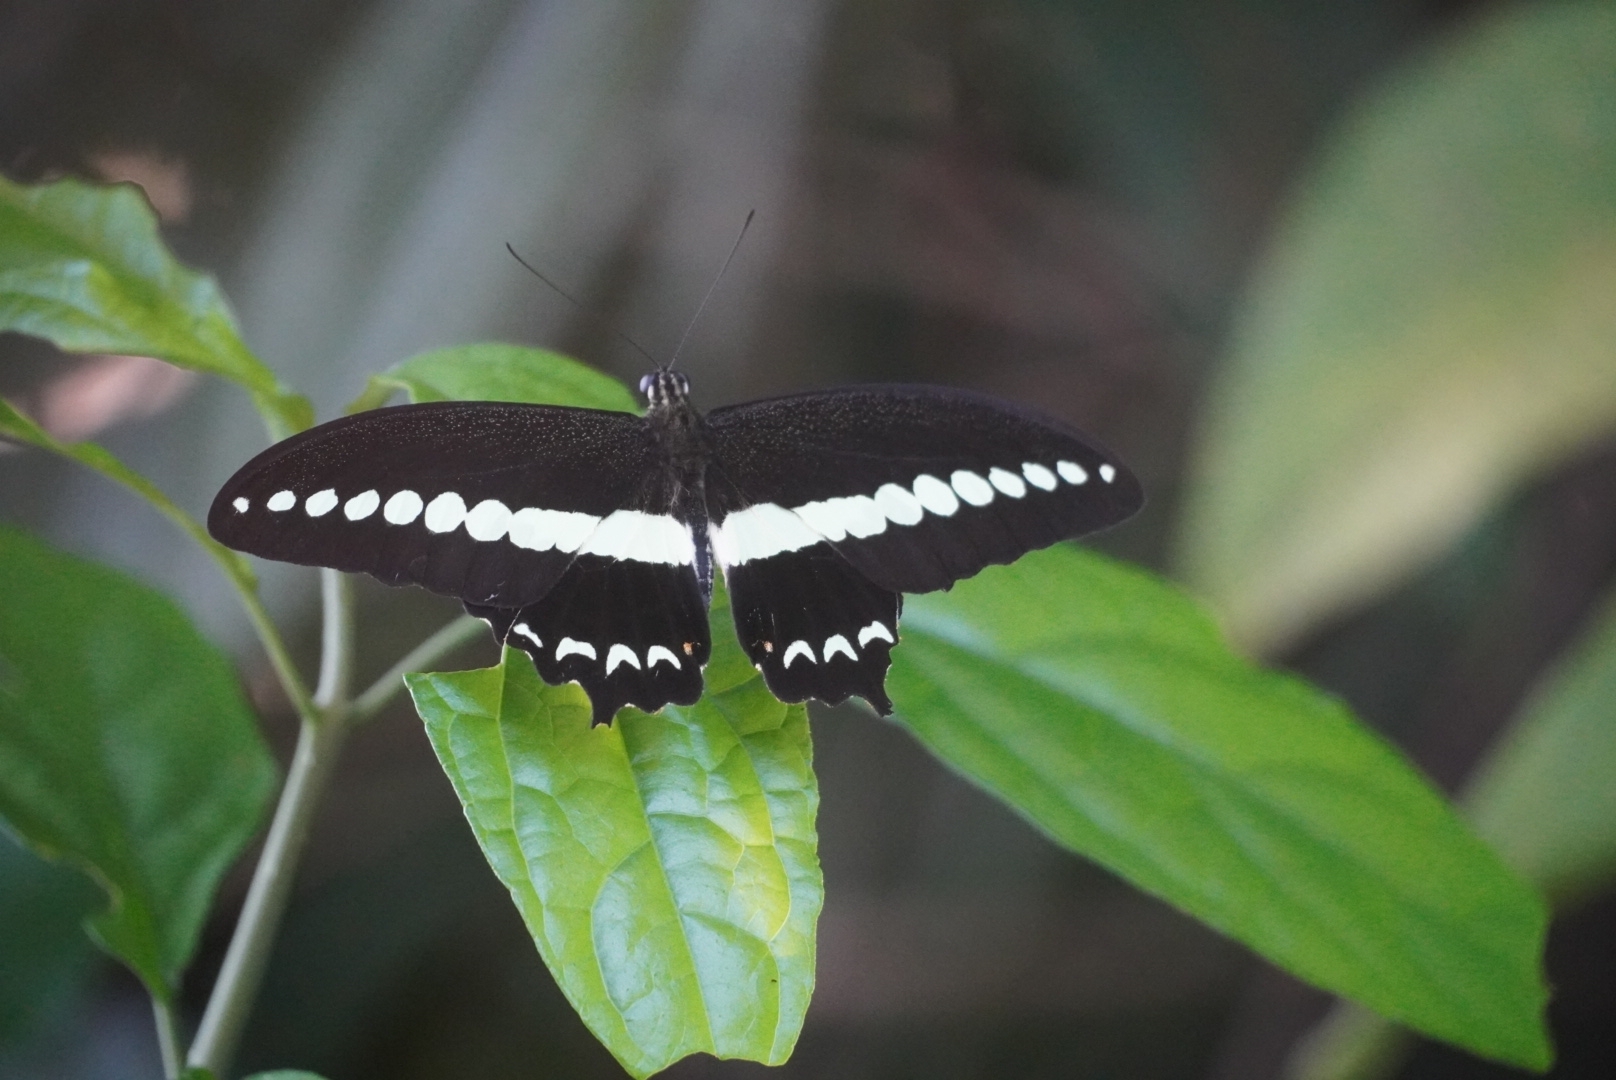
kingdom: Animalia
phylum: Arthropoda
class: Insecta
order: Lepidoptera
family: Papilionidae
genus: Papilio
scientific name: Papilio demolion
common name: Banded swallowtail
